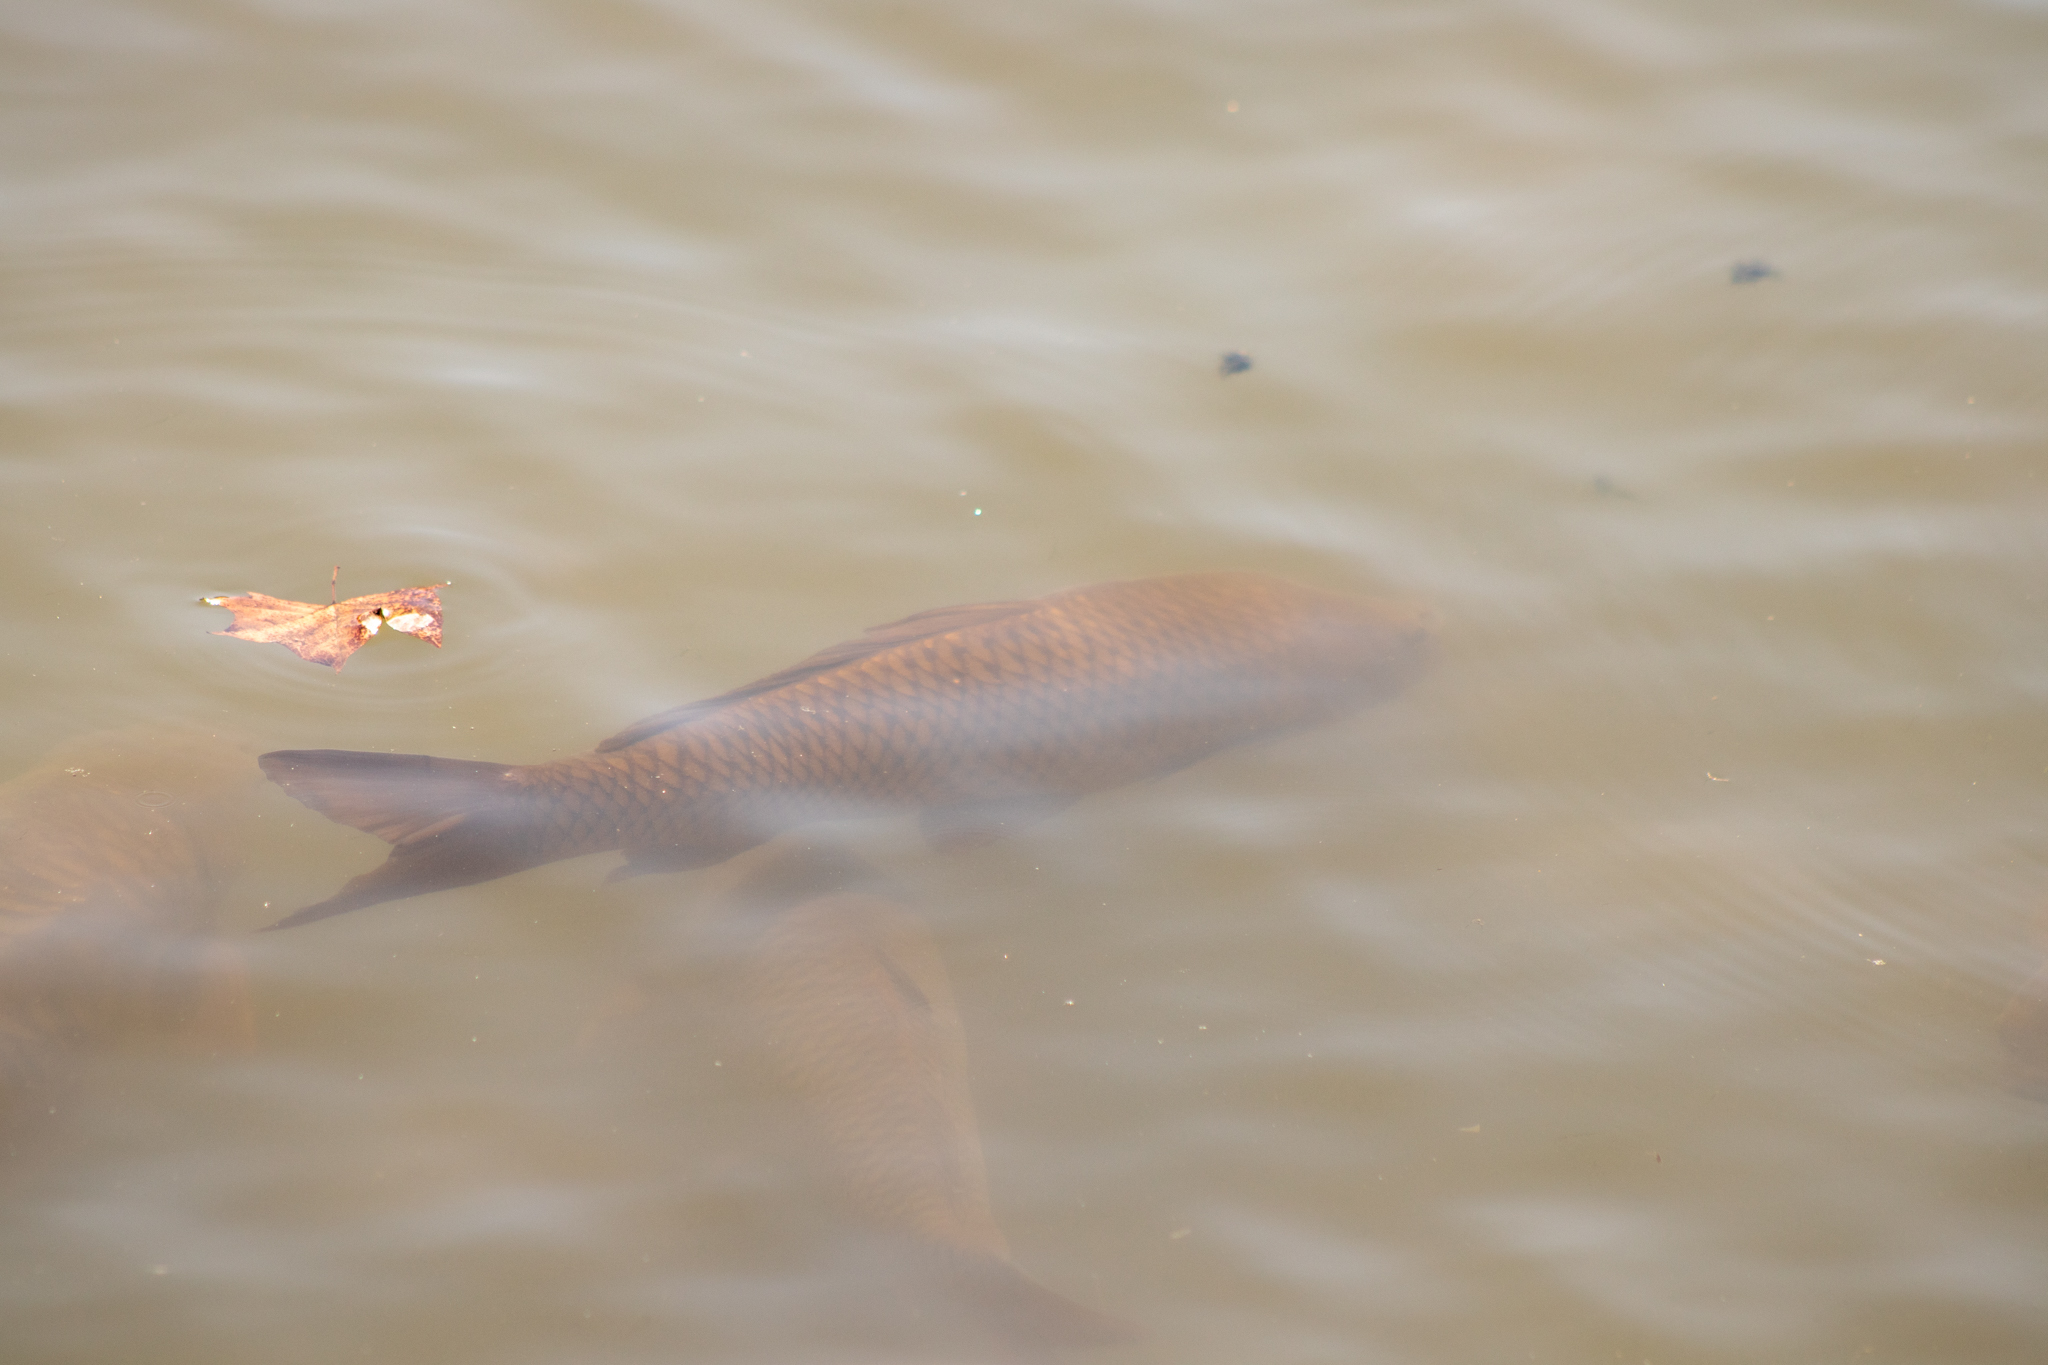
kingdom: Animalia
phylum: Chordata
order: Cypriniformes
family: Cyprinidae
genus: Cyprinus
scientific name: Cyprinus carpio
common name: Common carp
